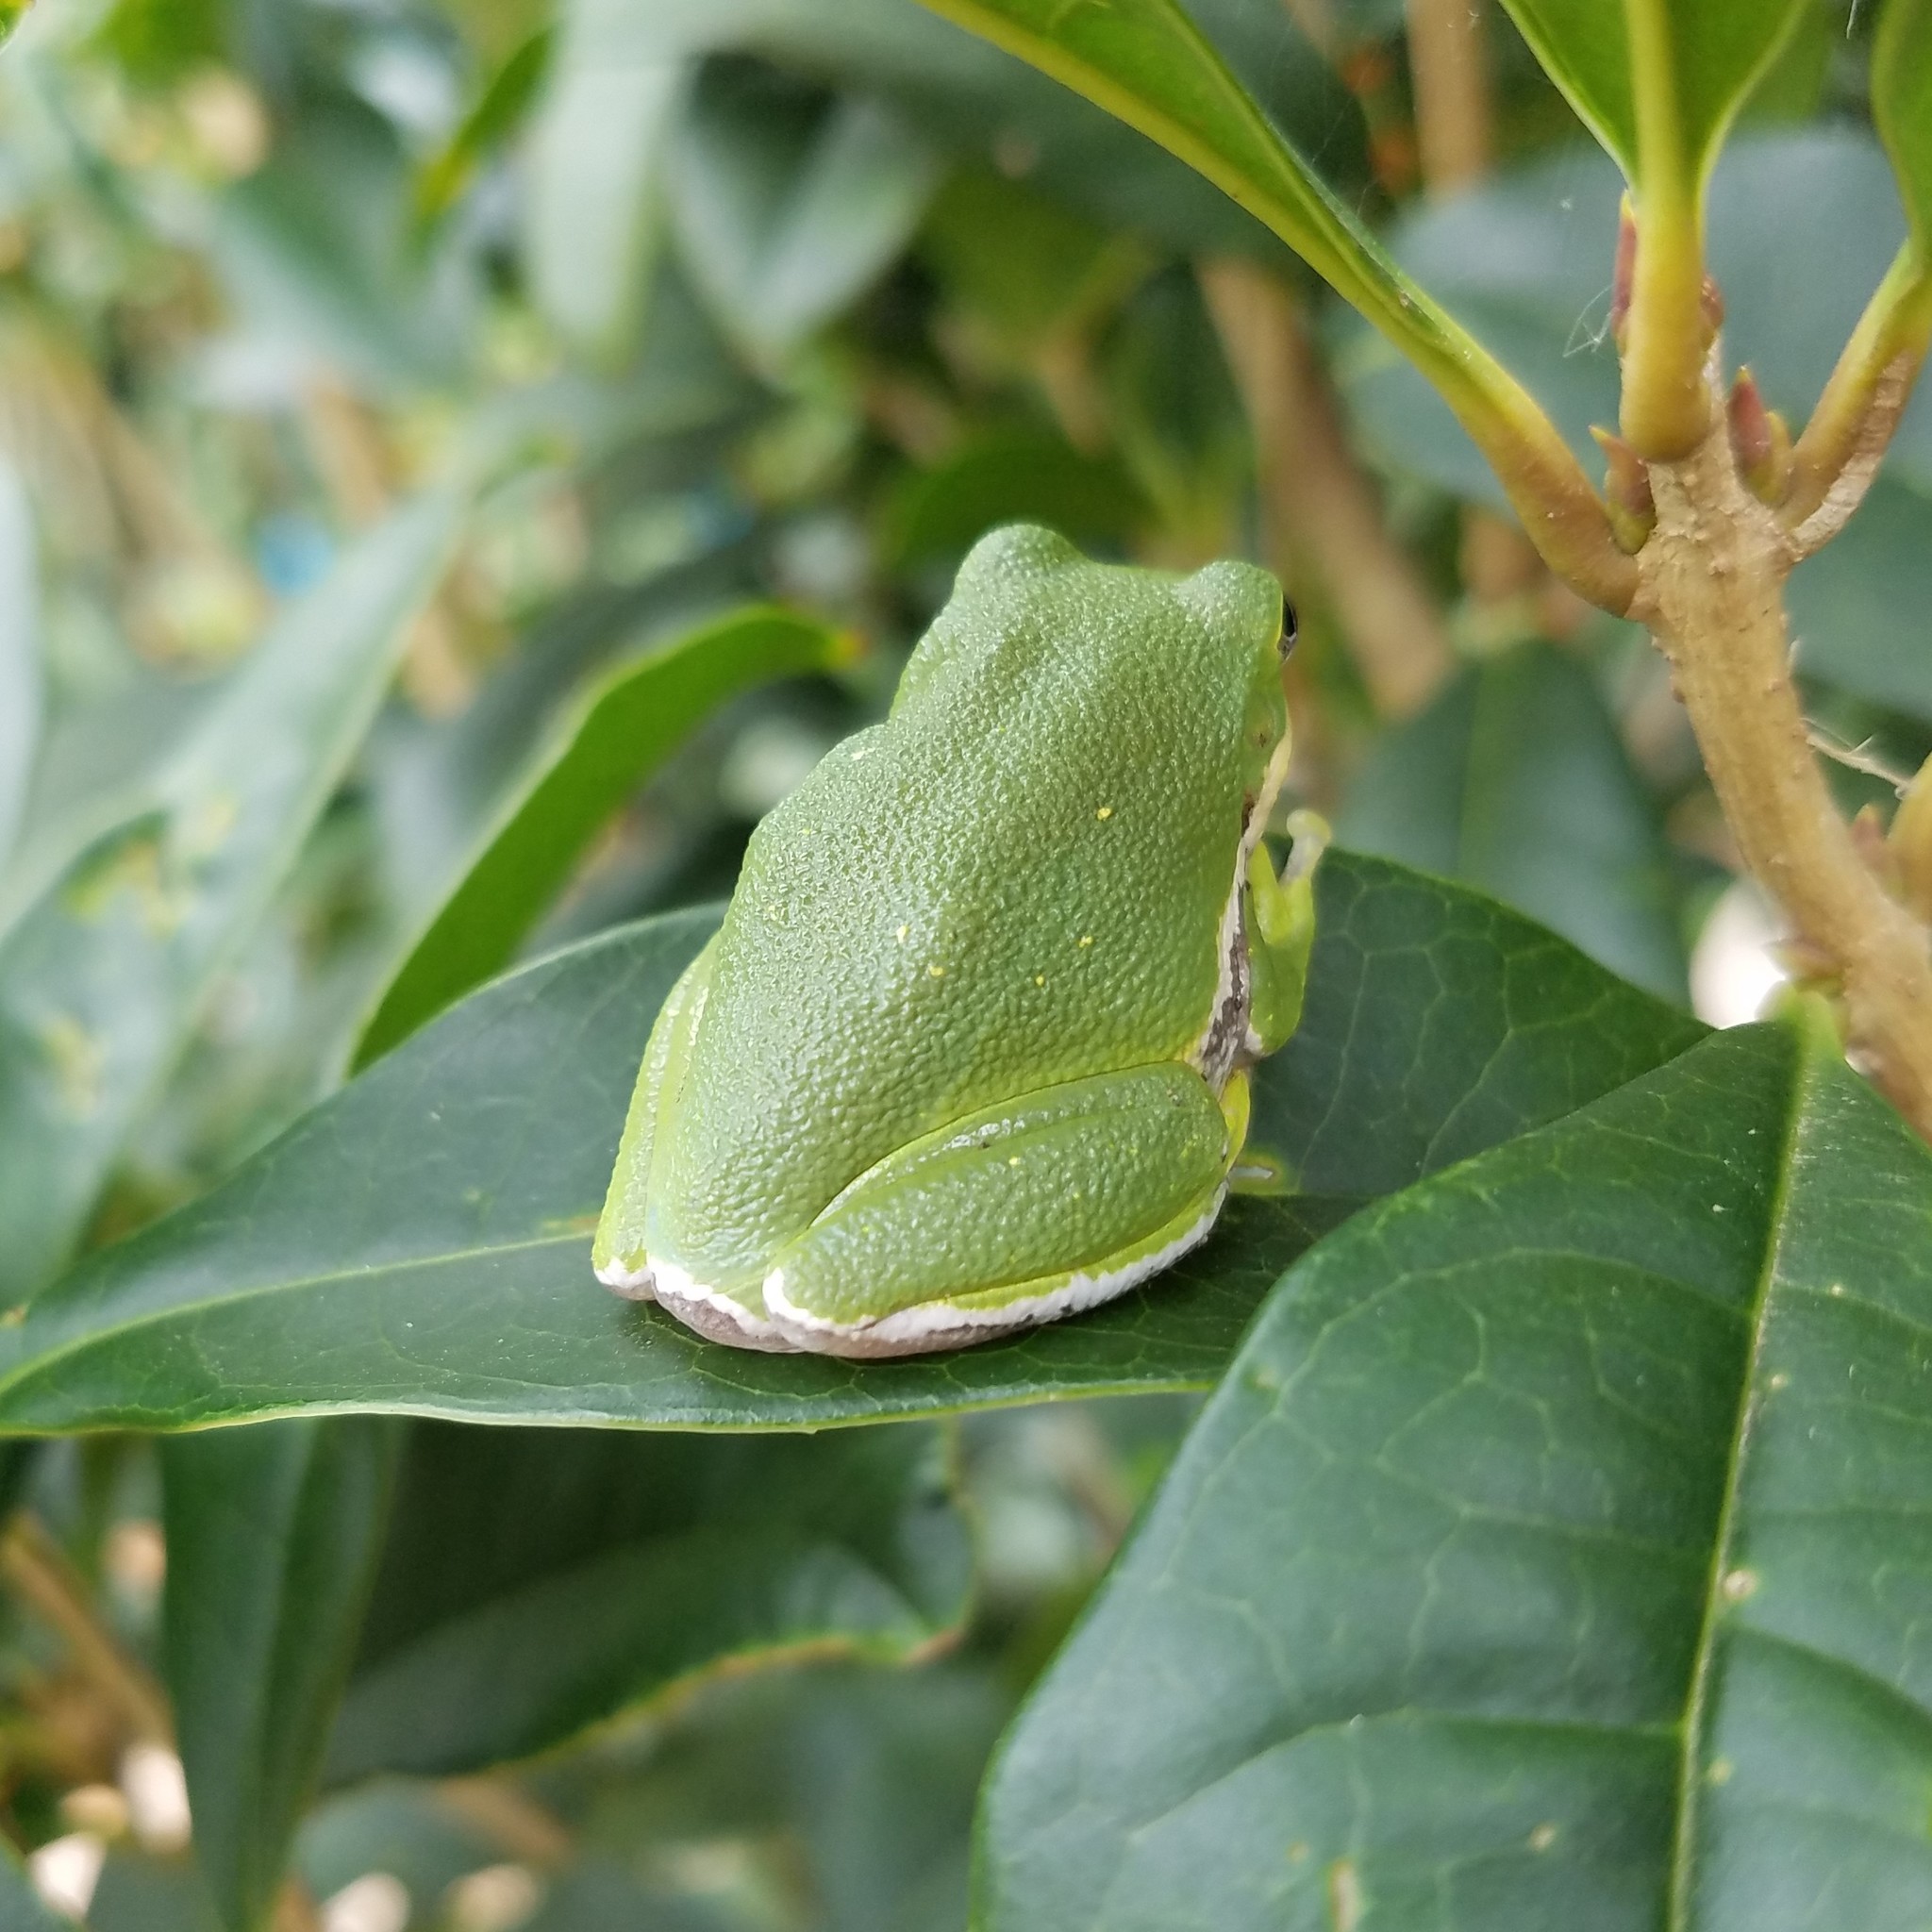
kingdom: Animalia
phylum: Chordata
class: Amphibia
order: Anura
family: Hylidae
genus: Dryophytes
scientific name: Dryophytes gratiosus
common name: Barking treefrog
